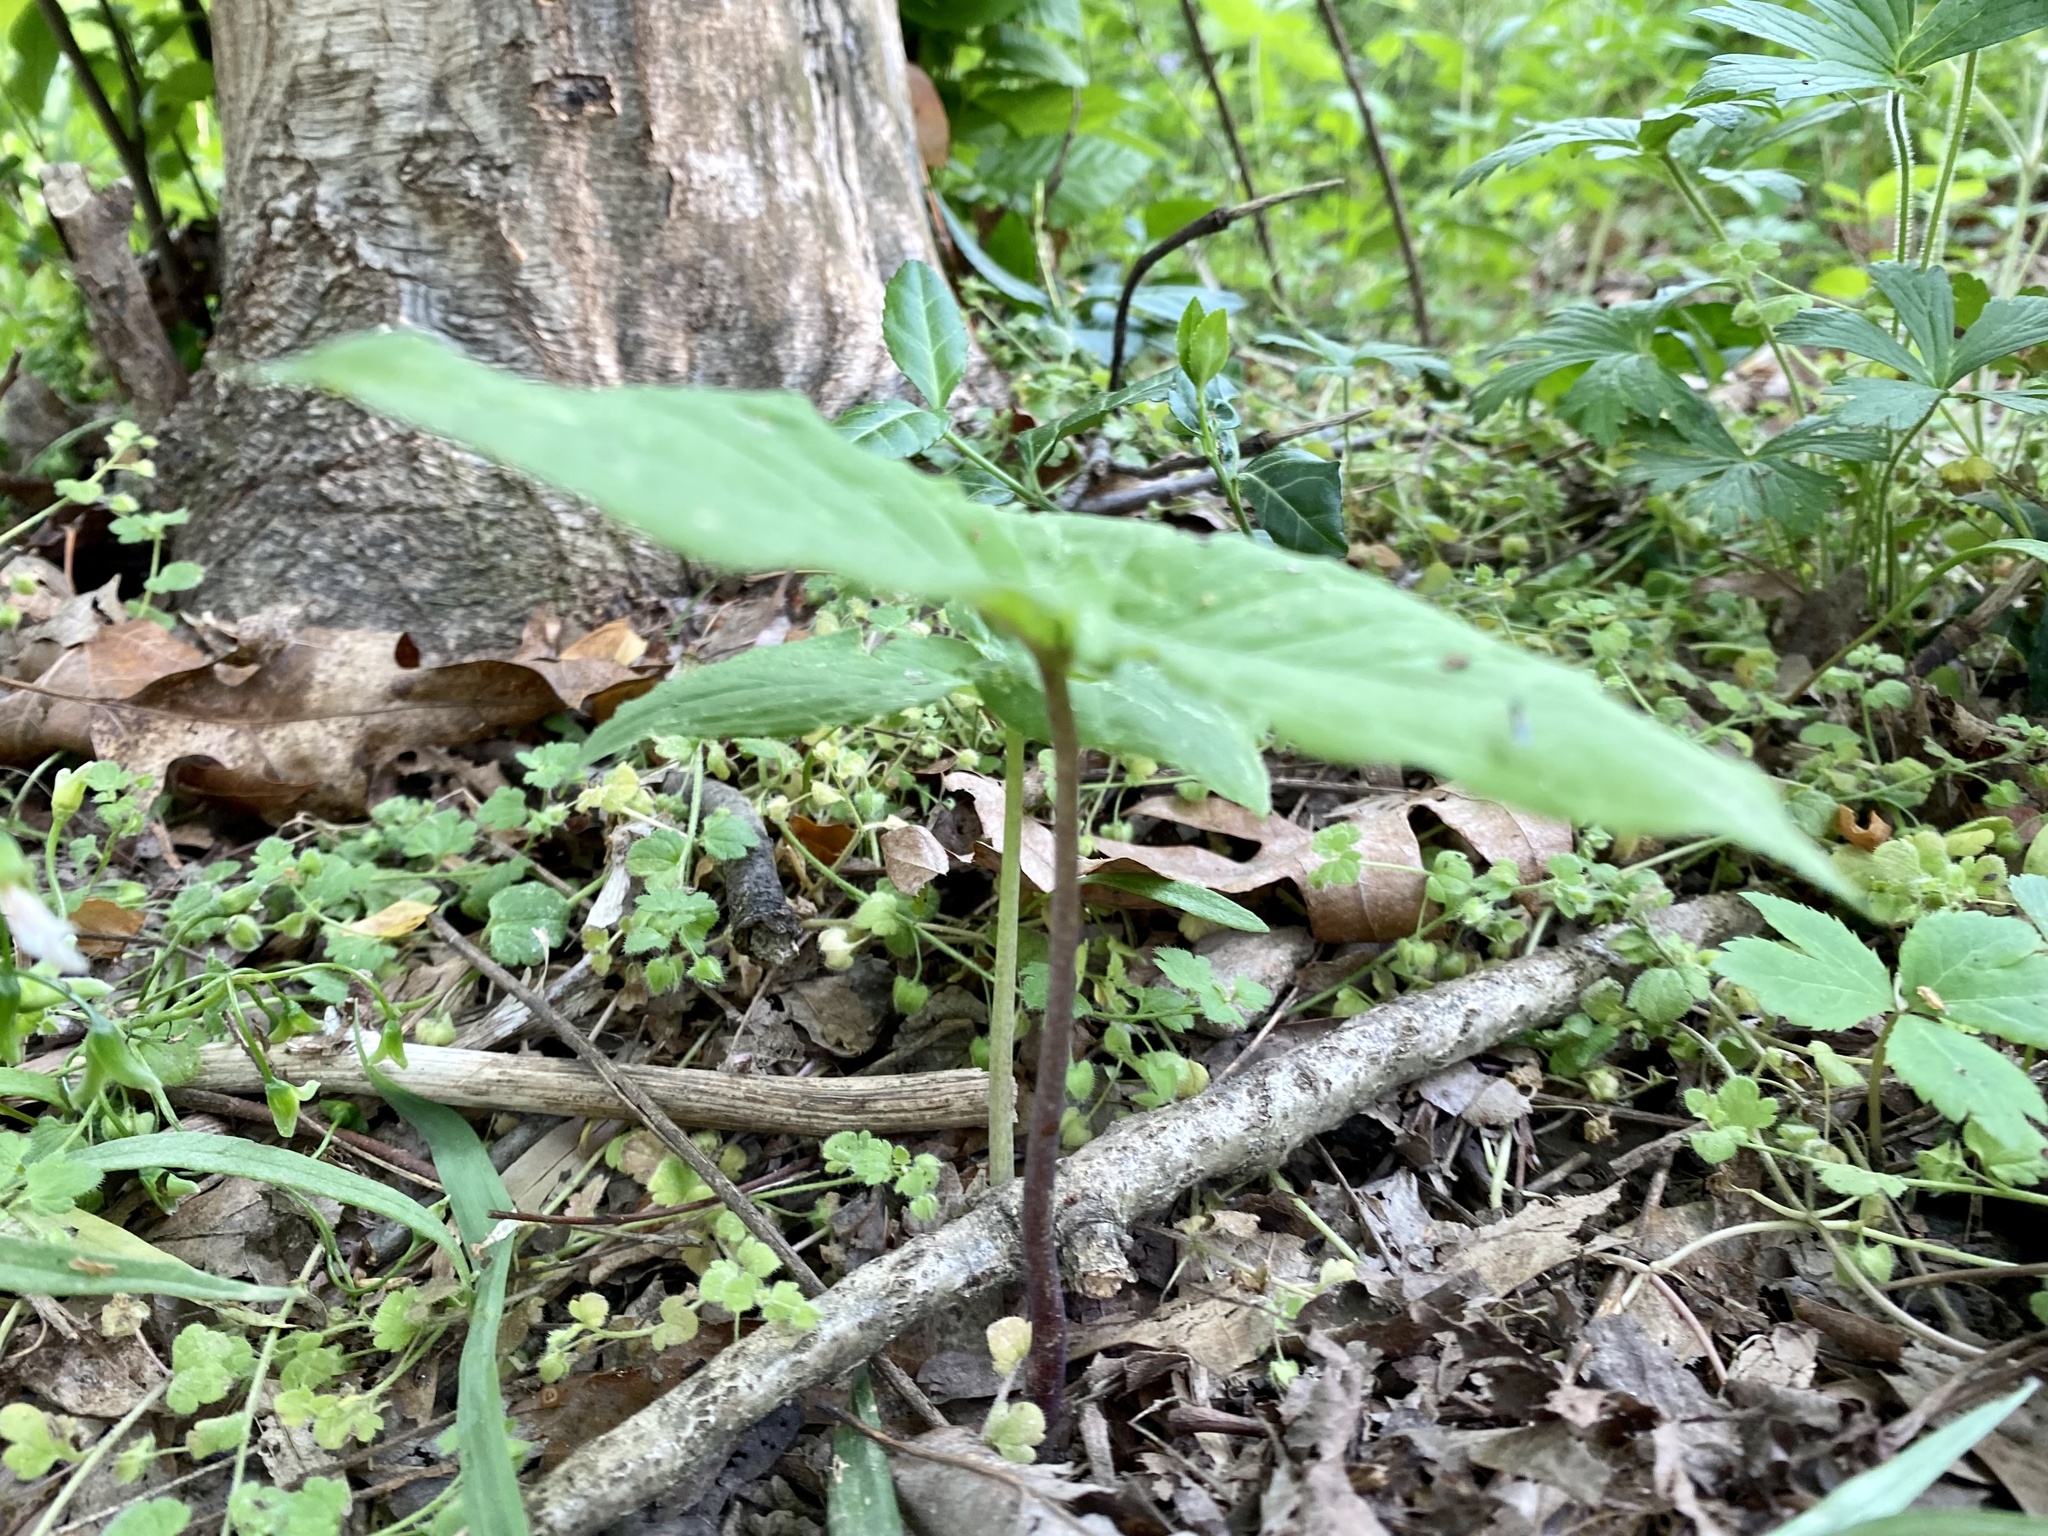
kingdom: Plantae
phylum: Tracheophyta
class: Liliopsida
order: Alismatales
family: Araceae
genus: Arisaema
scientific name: Arisaema triphyllum
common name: Jack-in-the-pulpit
